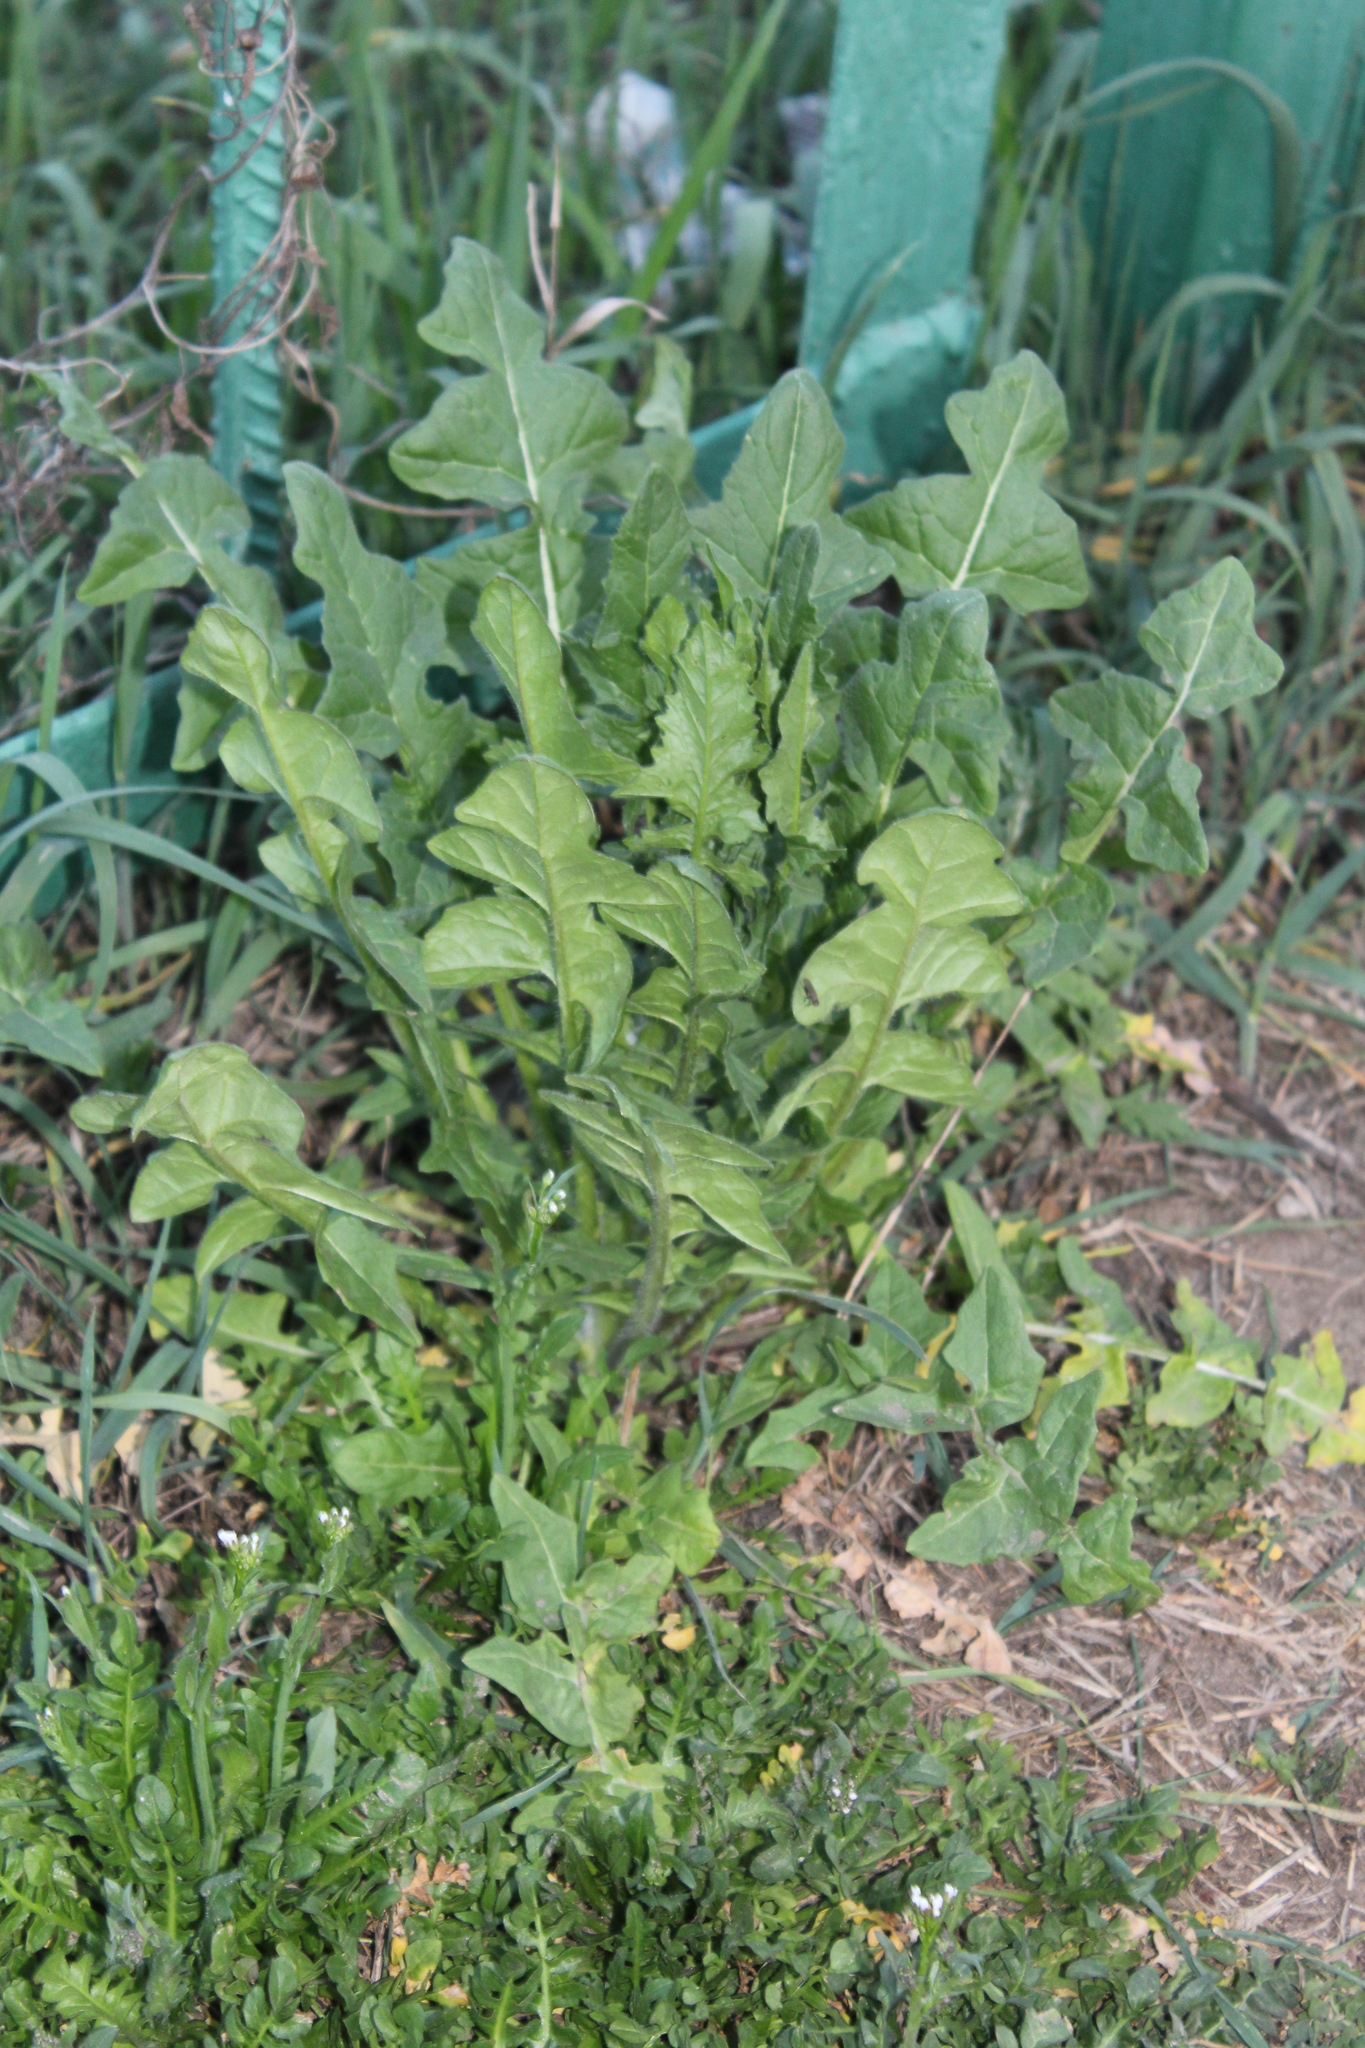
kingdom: Plantae
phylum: Tracheophyta
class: Magnoliopsida
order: Brassicales
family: Brassicaceae
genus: Sisymbrium
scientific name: Sisymbrium loeselii
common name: False london-rocket
